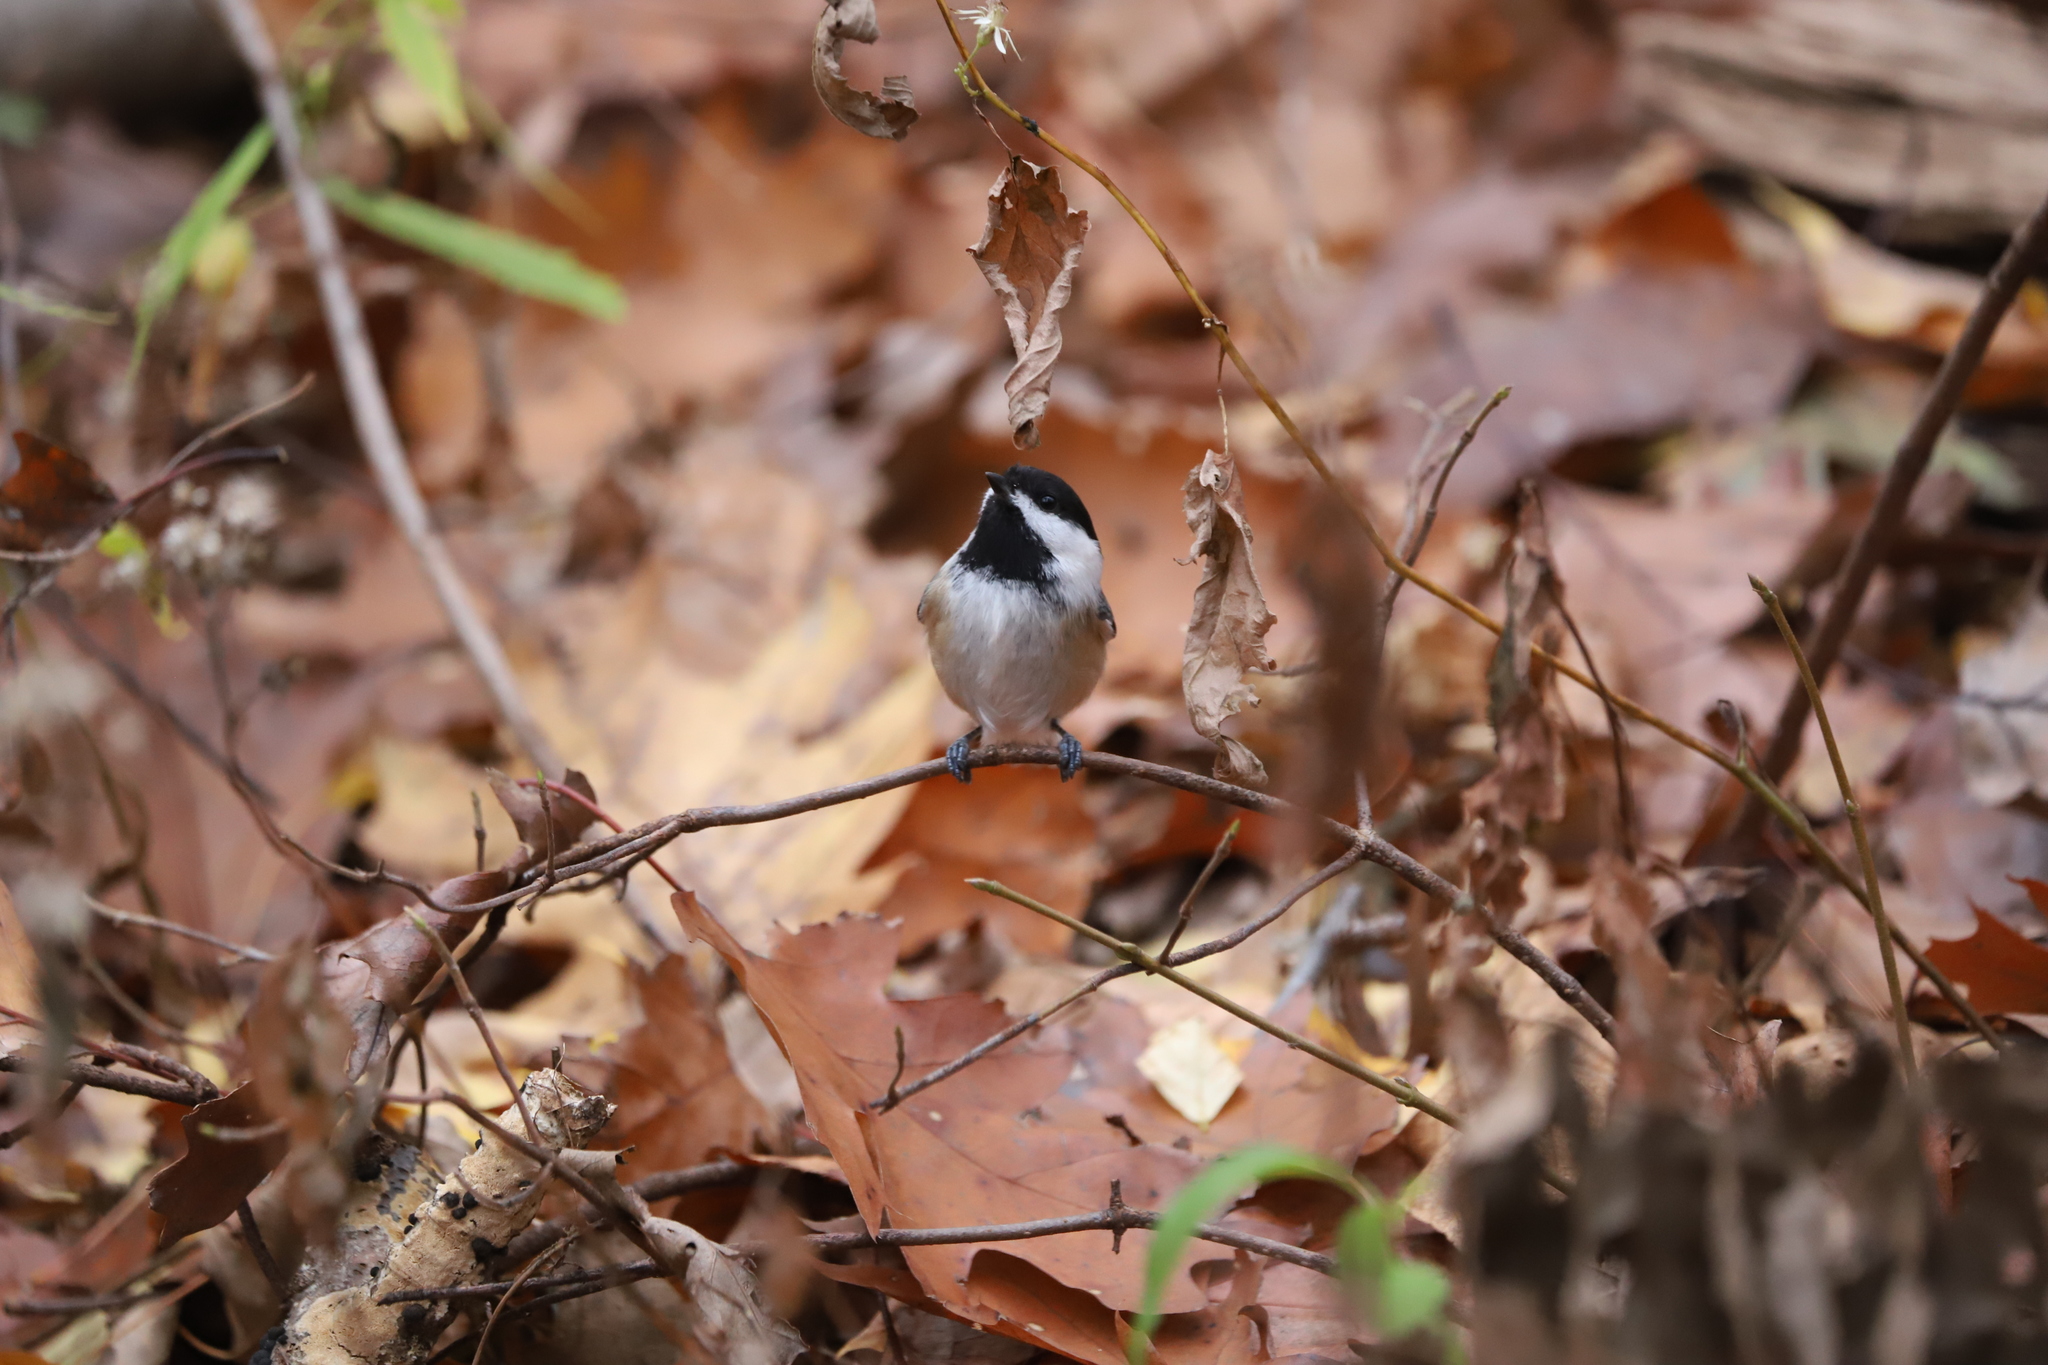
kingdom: Animalia
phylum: Chordata
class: Aves
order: Passeriformes
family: Paridae
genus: Poecile
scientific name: Poecile atricapillus
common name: Black-capped chickadee
